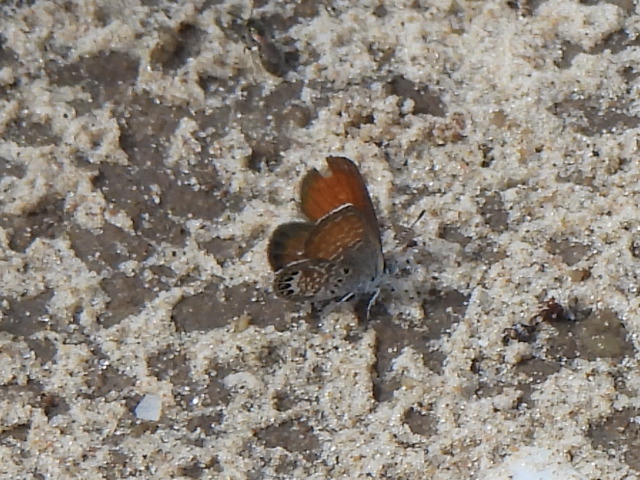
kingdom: Animalia
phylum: Arthropoda
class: Insecta
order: Lepidoptera
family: Lycaenidae
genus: Brephidium
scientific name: Brephidium exilis
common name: Pygmy blue
